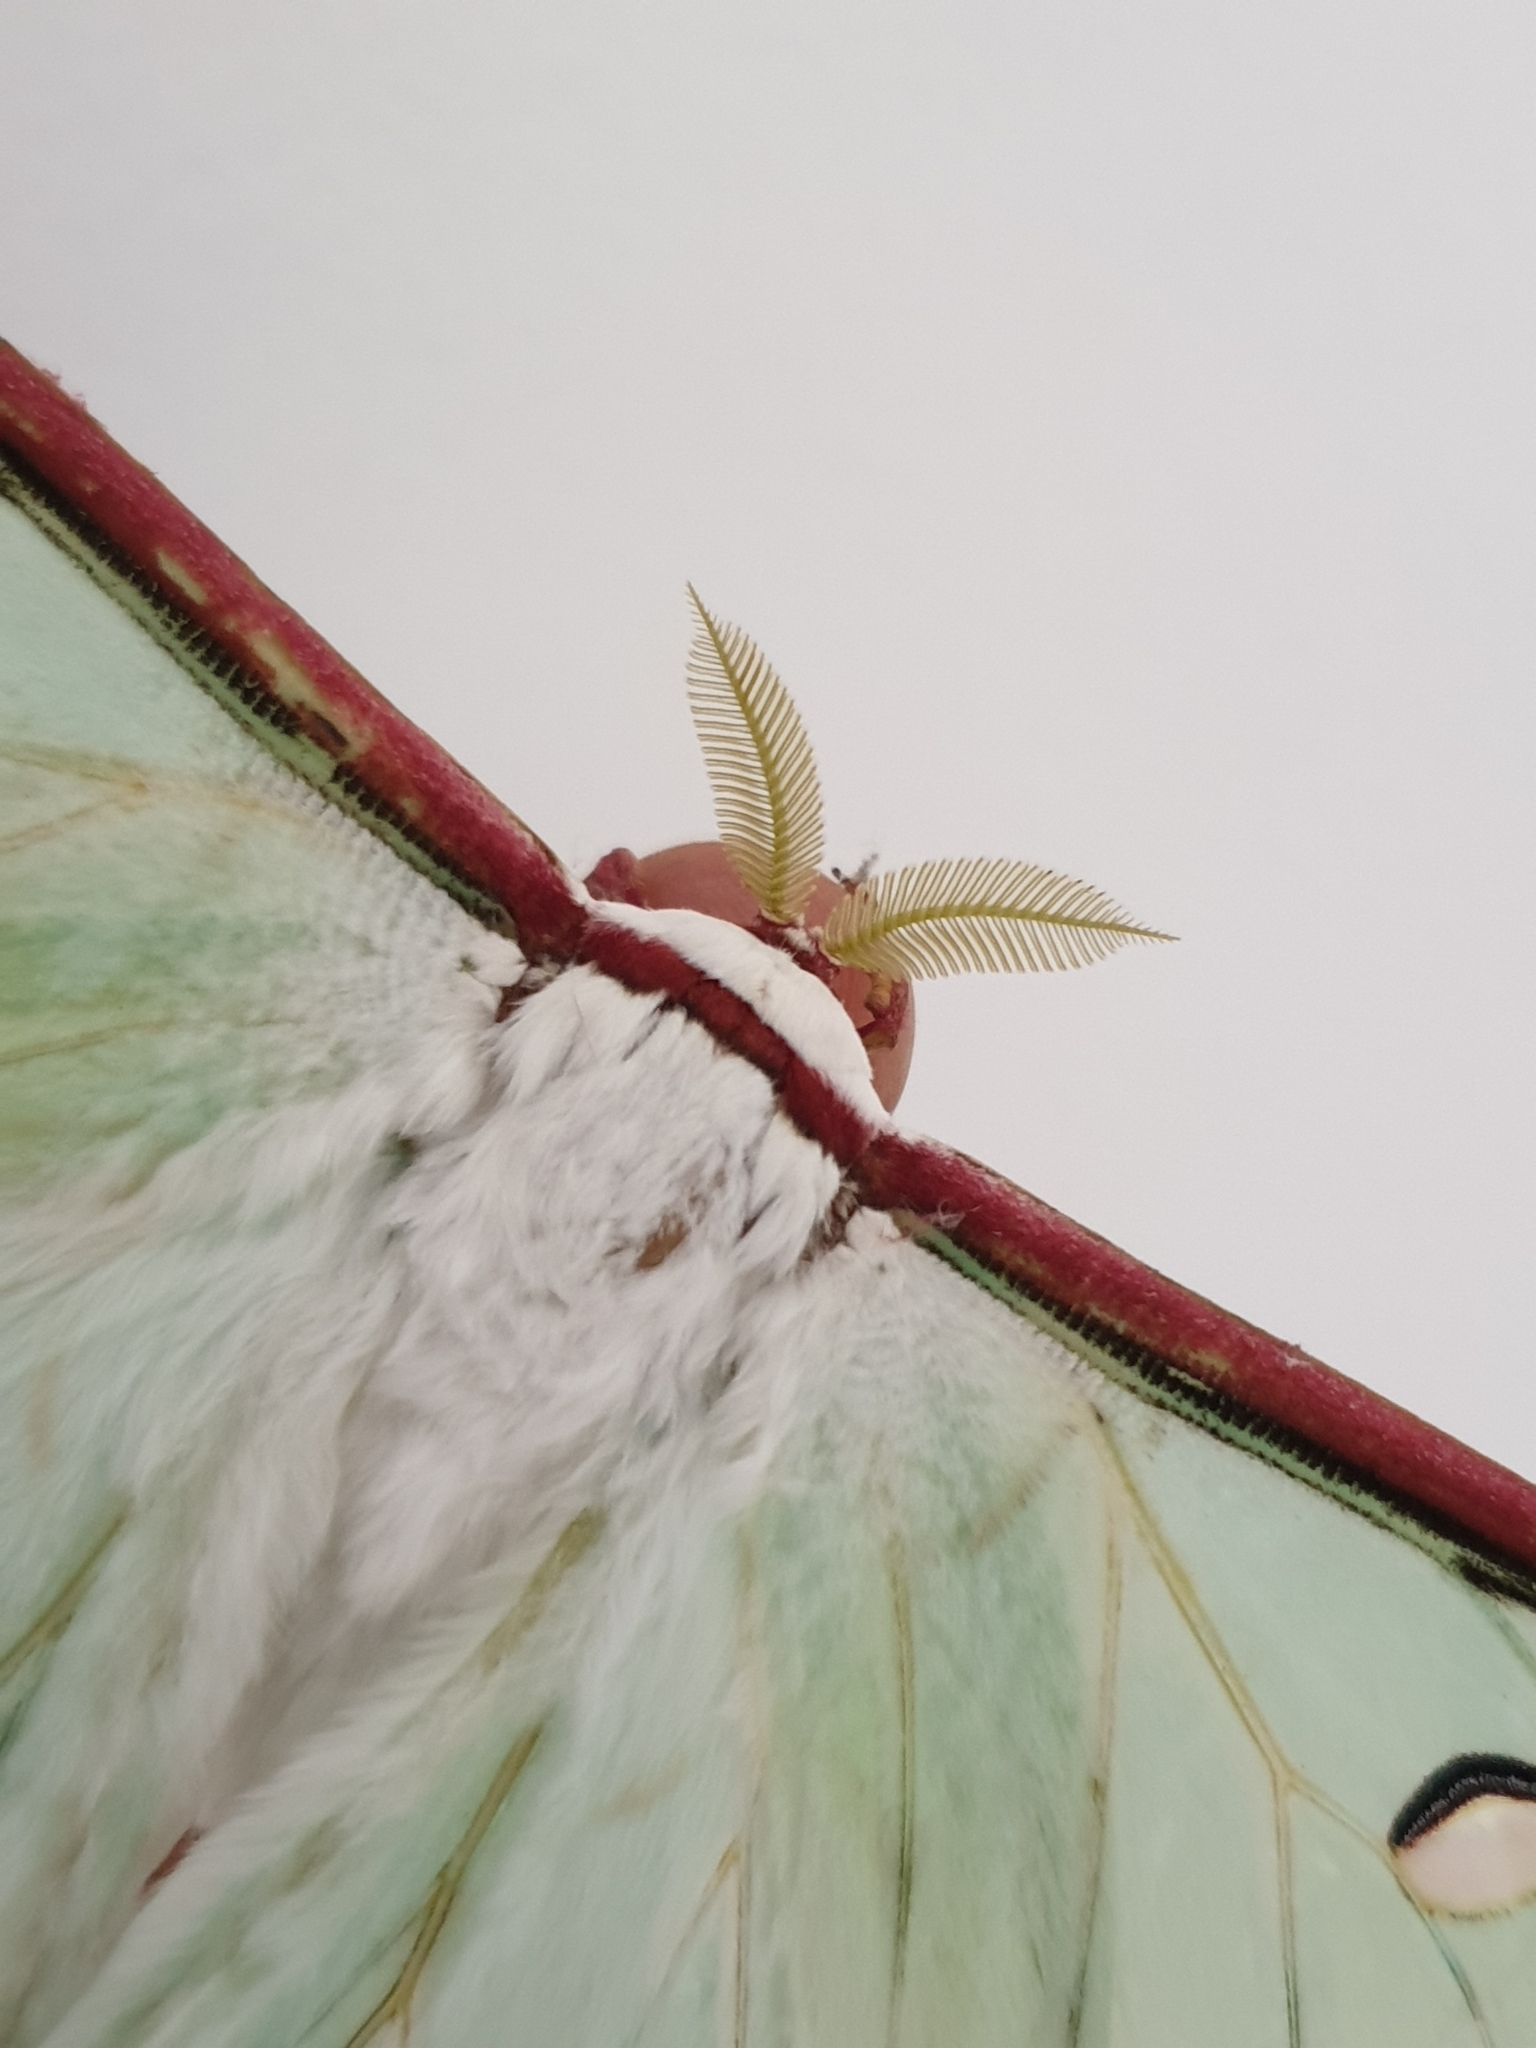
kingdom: Animalia
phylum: Arthropoda
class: Insecta
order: Lepidoptera
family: Saturniidae
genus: Actias
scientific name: Actias selene
